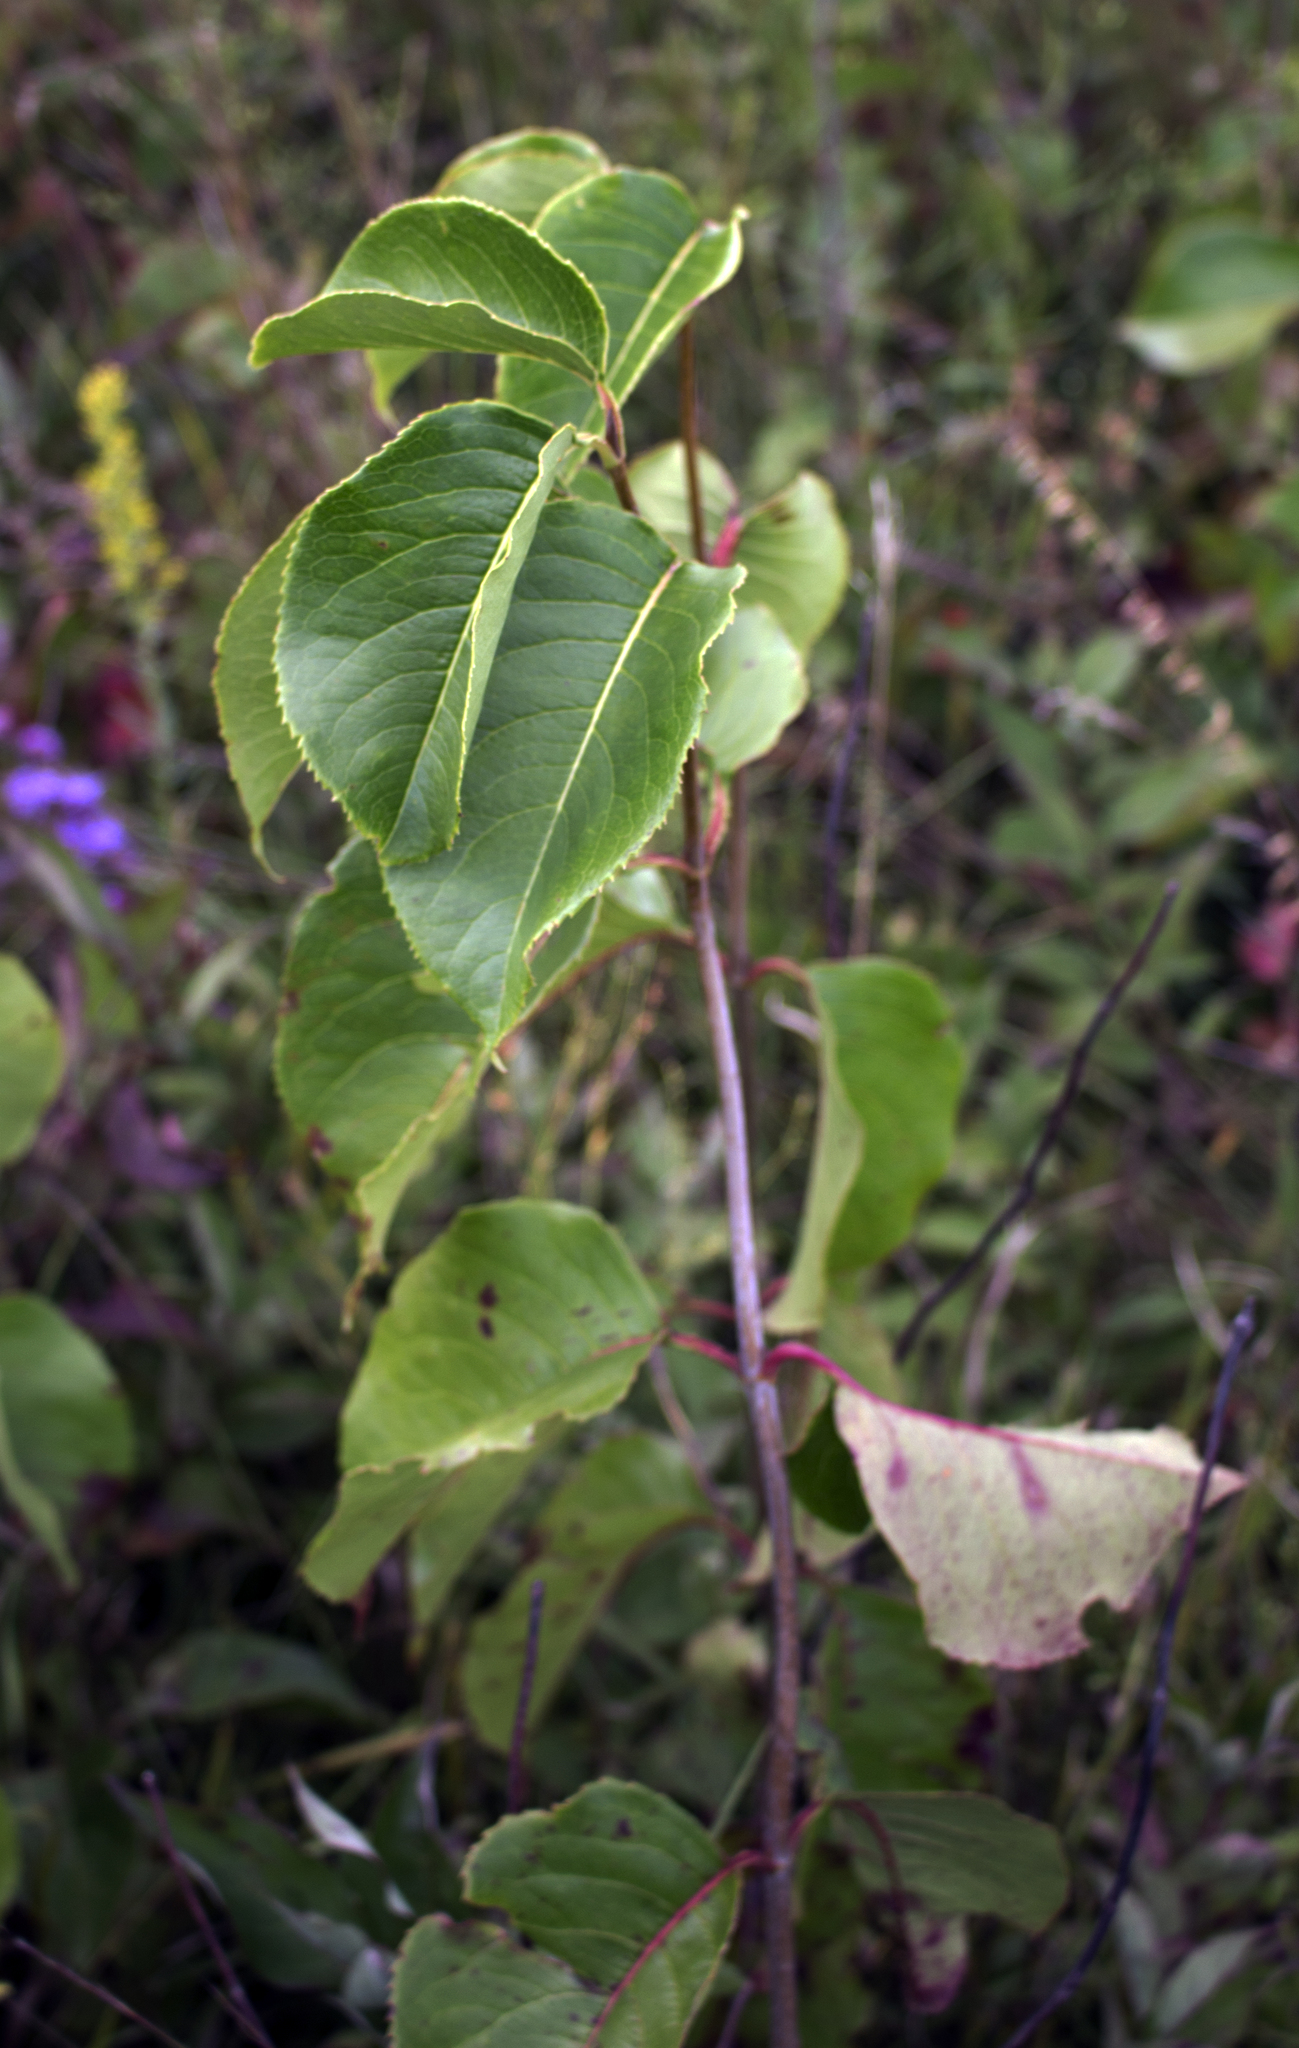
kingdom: Plantae
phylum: Tracheophyta
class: Magnoliopsida
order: Dipsacales
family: Viburnaceae
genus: Viburnum
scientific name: Viburnum lentago
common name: Black haw
